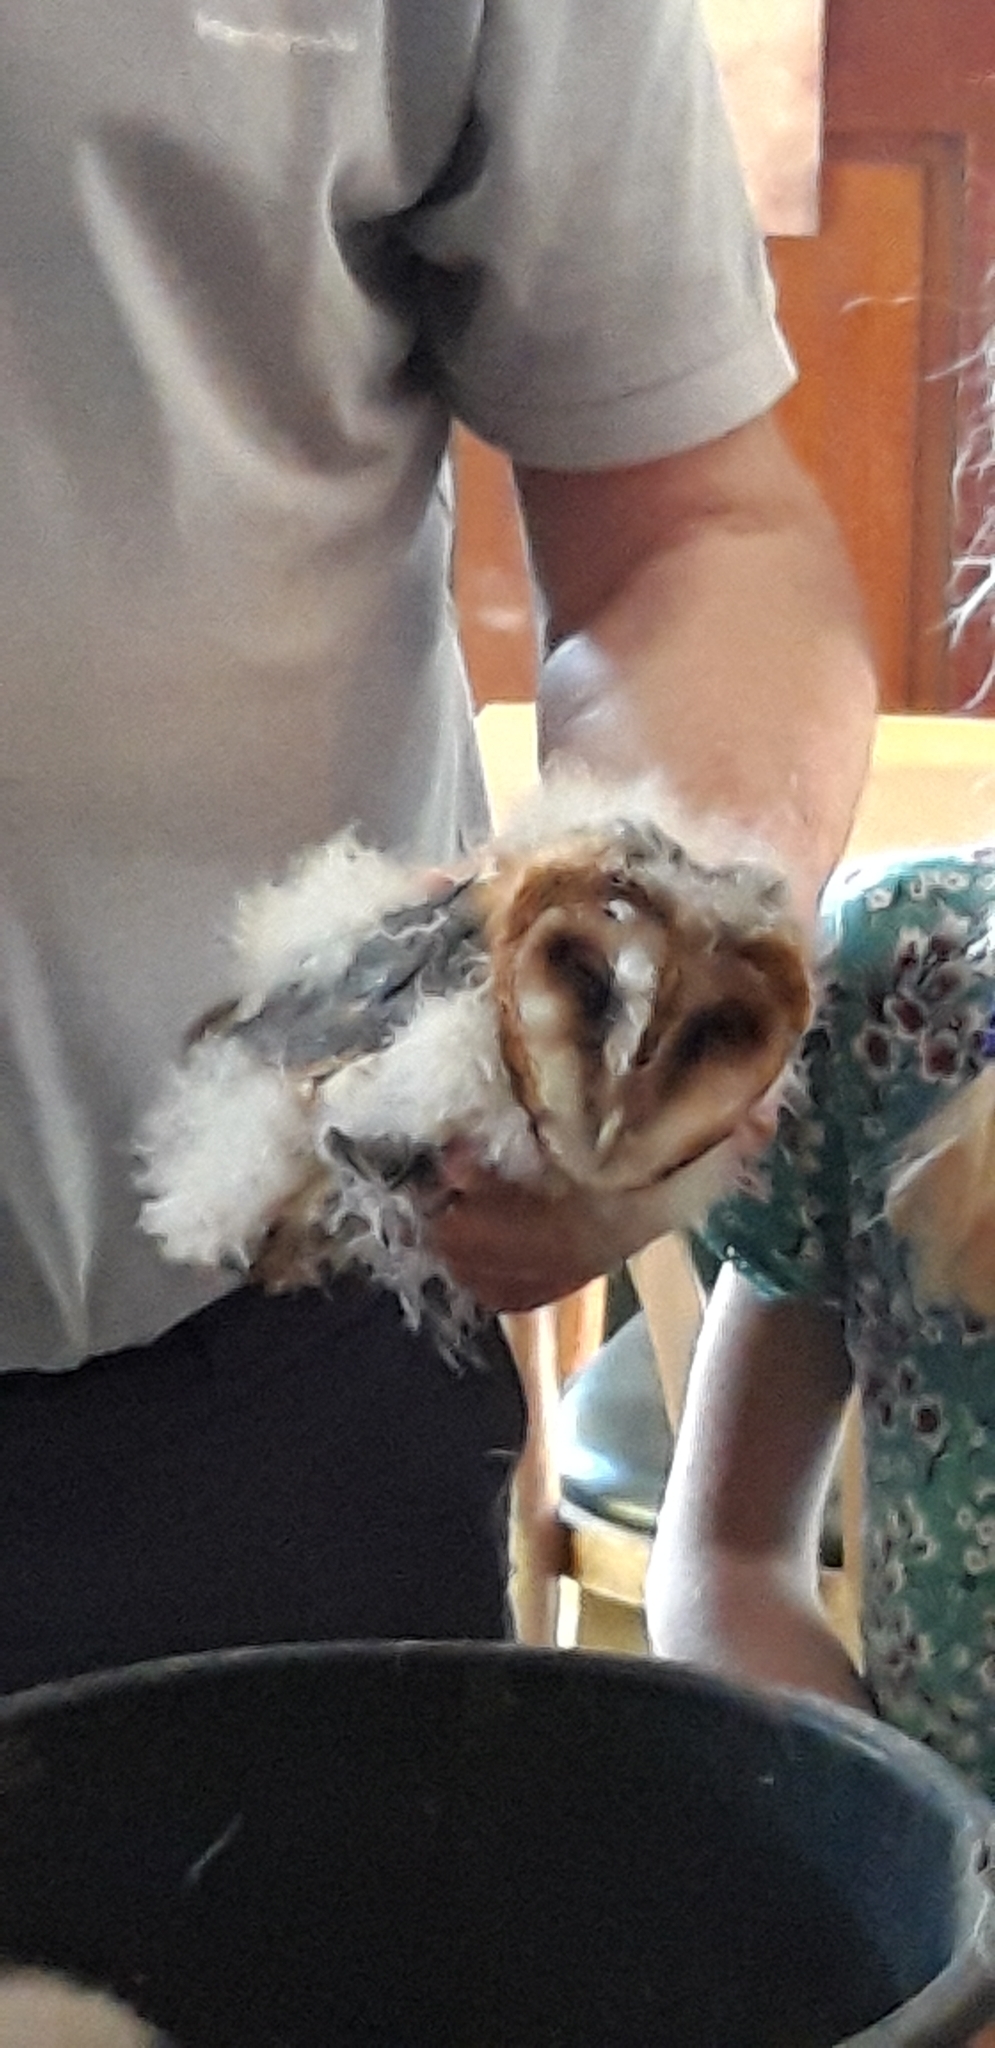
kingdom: Animalia
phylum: Chordata
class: Aves
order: Strigiformes
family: Tytonidae
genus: Tyto
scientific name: Tyto alba
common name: Barn owl
